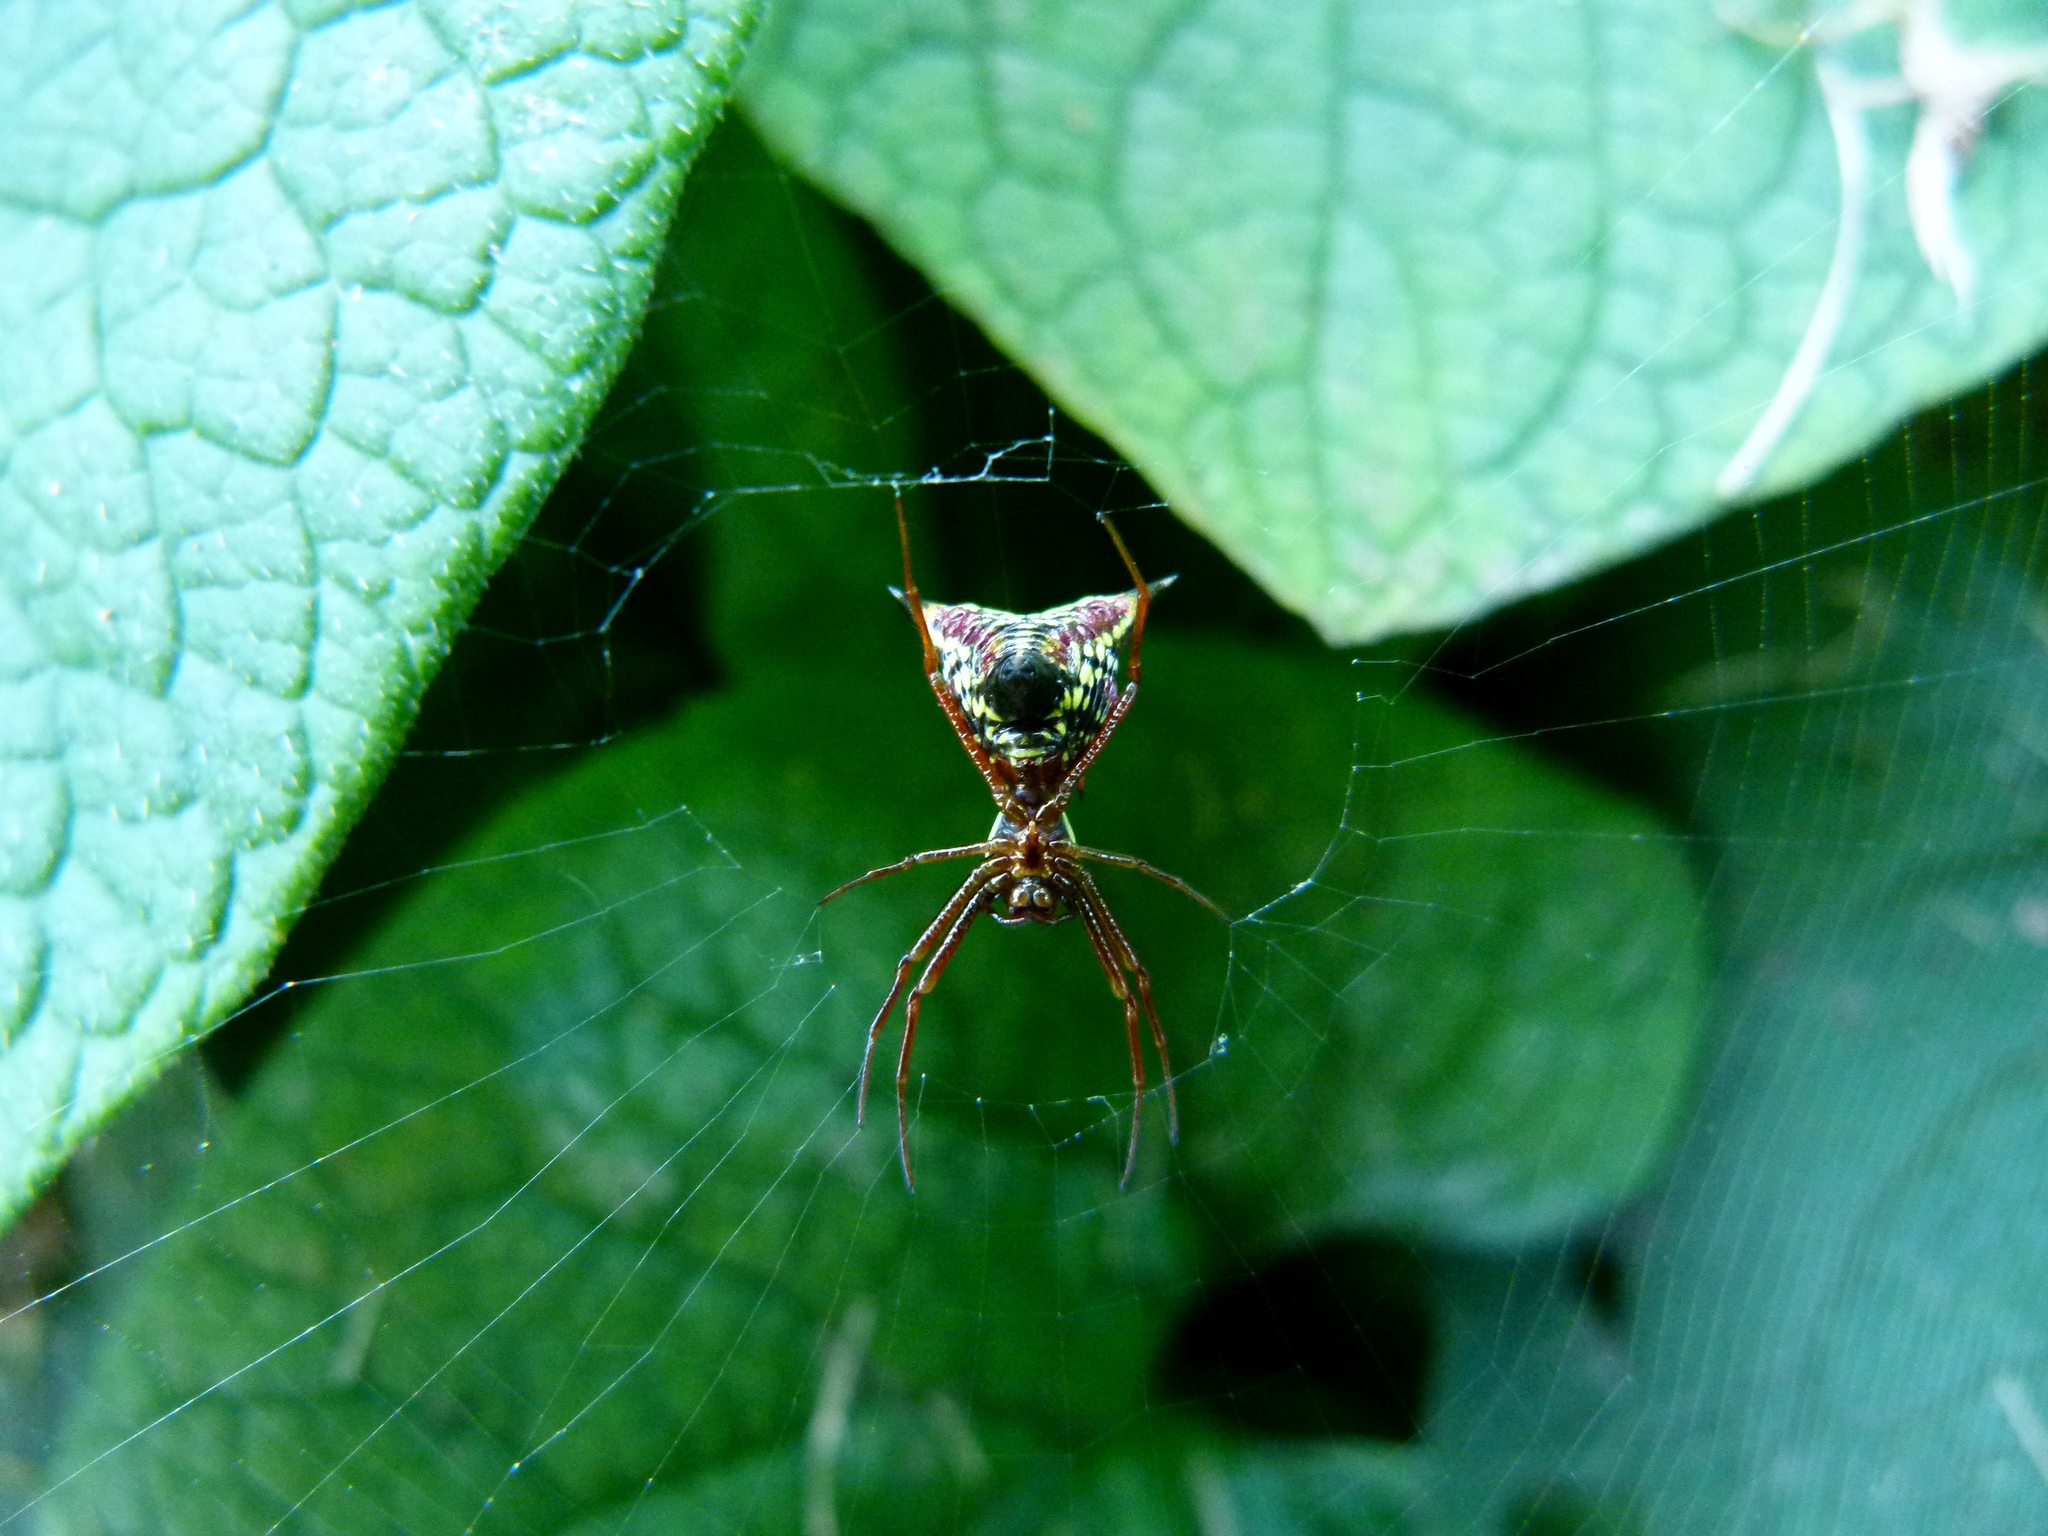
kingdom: Animalia
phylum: Arthropoda
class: Arachnida
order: Araneae
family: Araneidae
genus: Micrathena
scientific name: Micrathena sagittata
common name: Orb weavers
